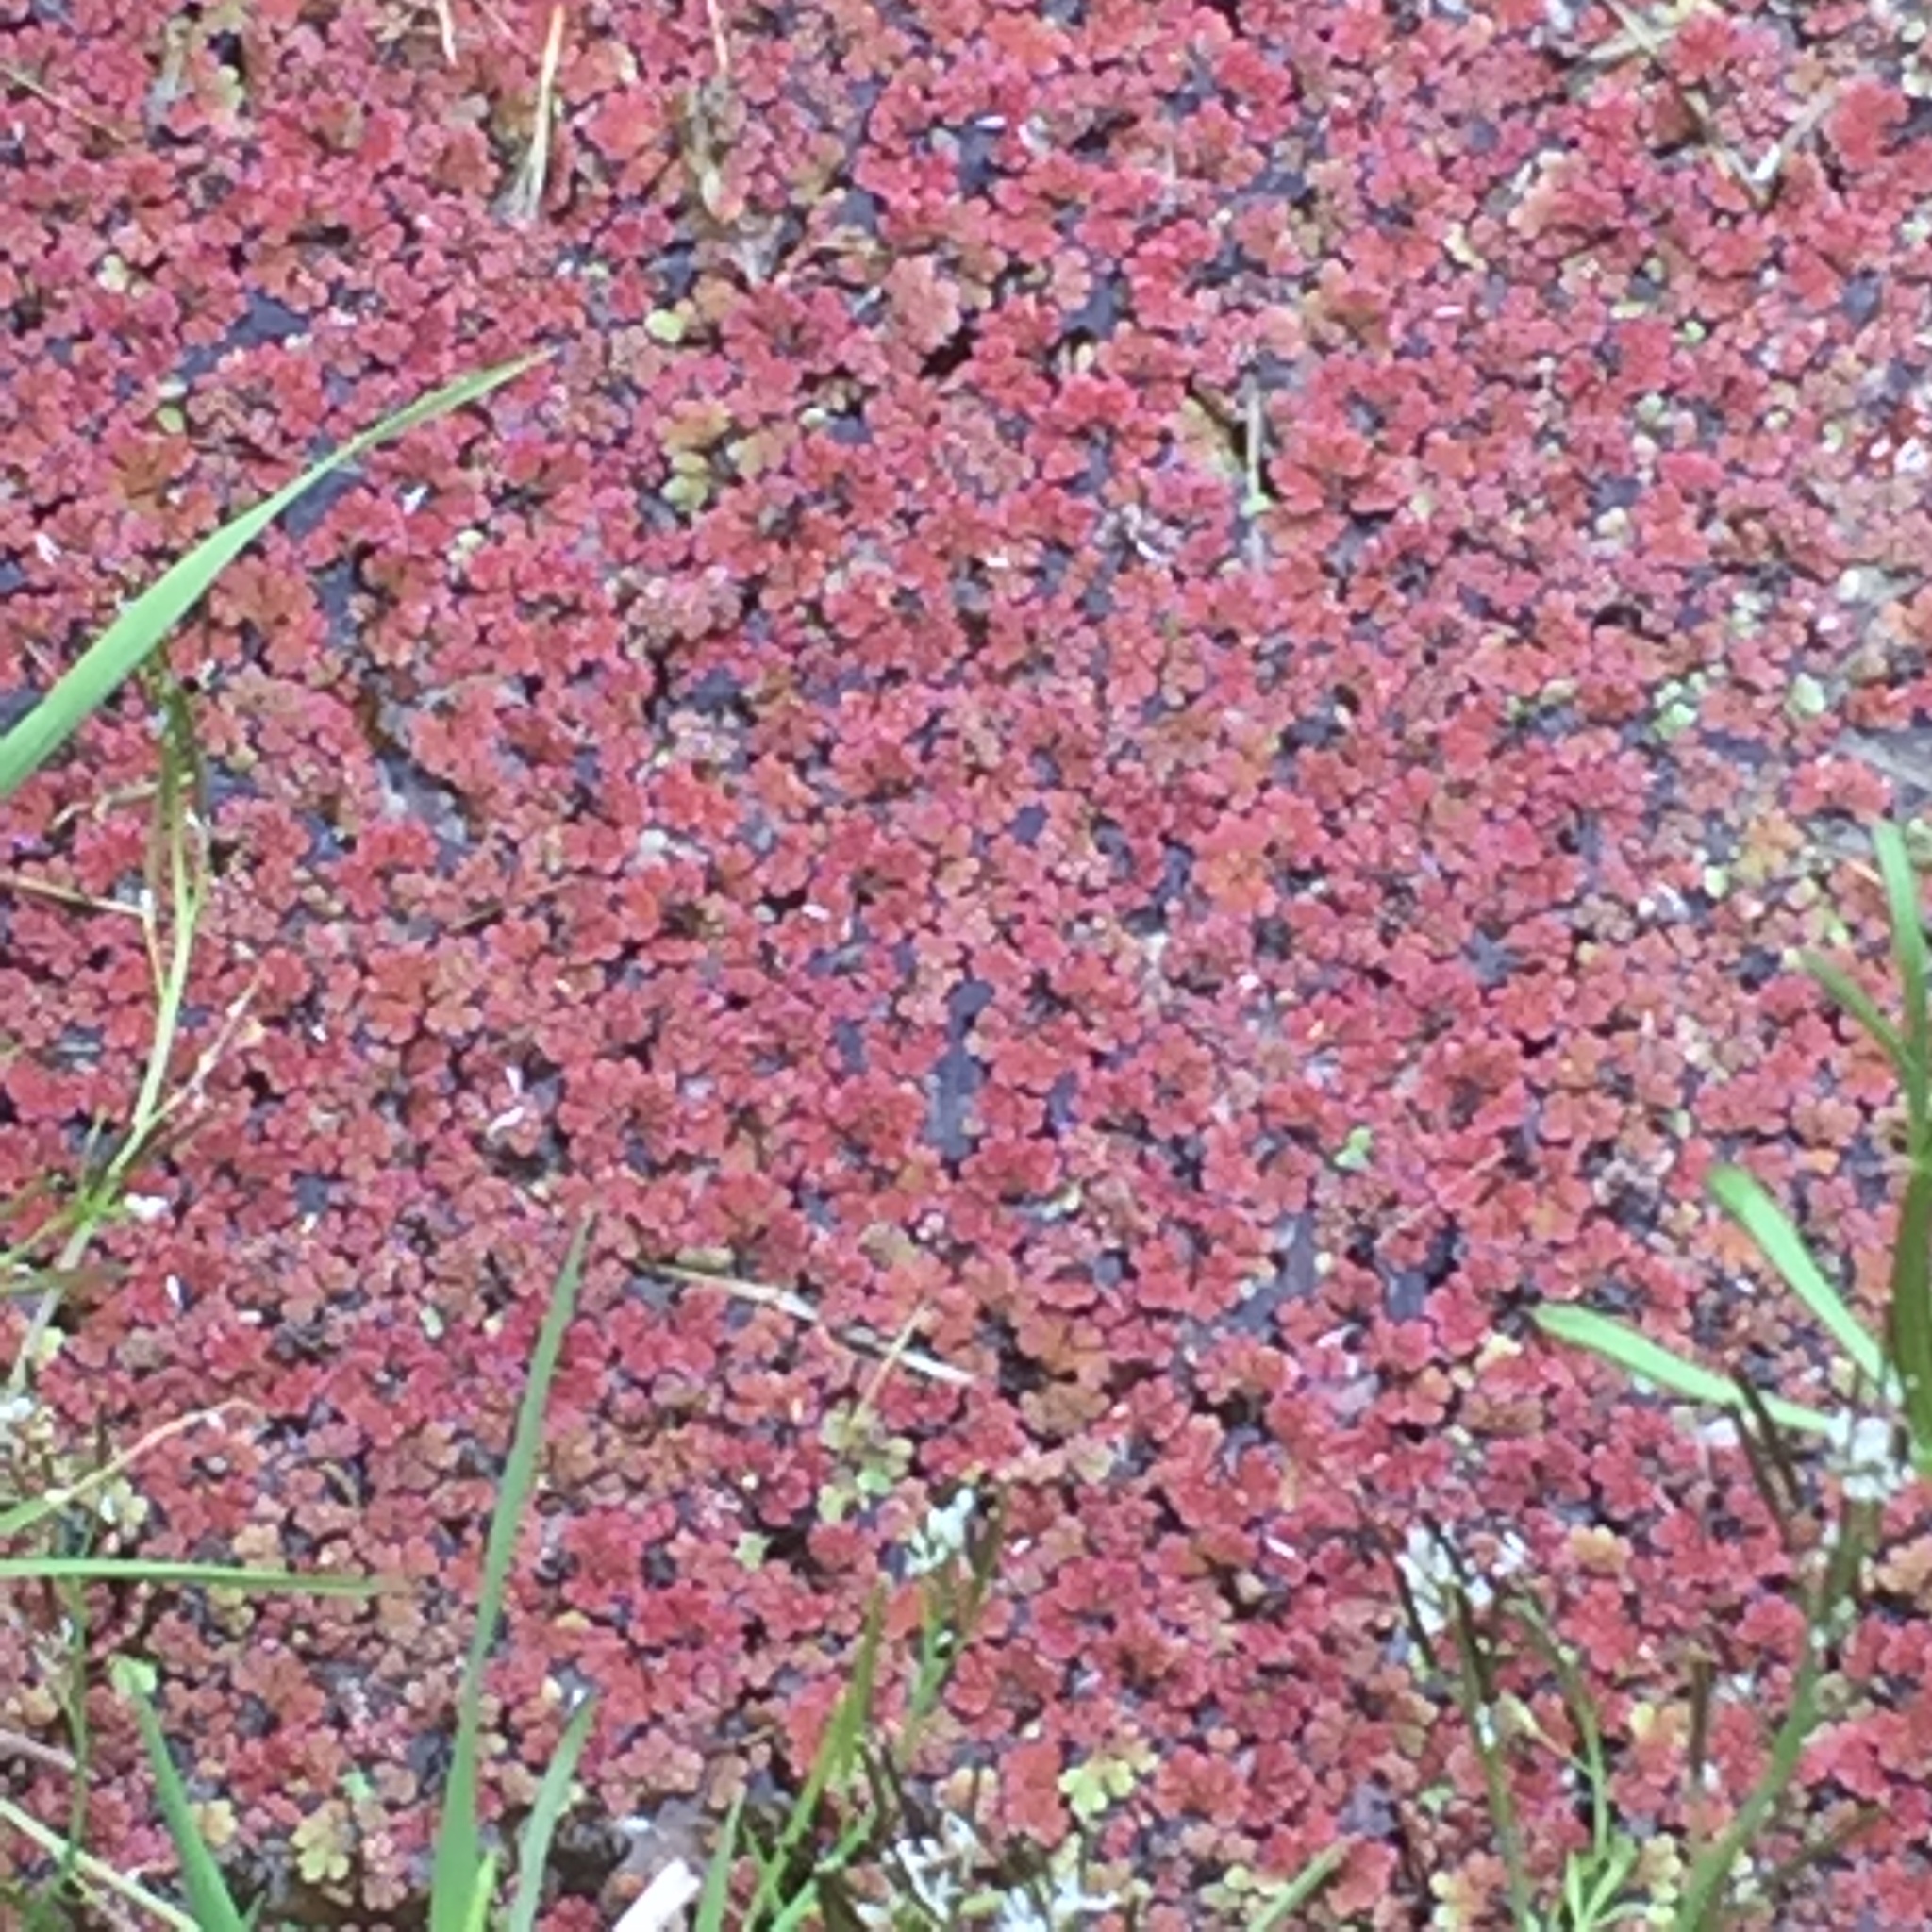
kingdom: Plantae
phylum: Tracheophyta
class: Polypodiopsida
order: Salviniales
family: Salviniaceae
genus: Azolla
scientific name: Azolla filiculoides
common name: Water fern
